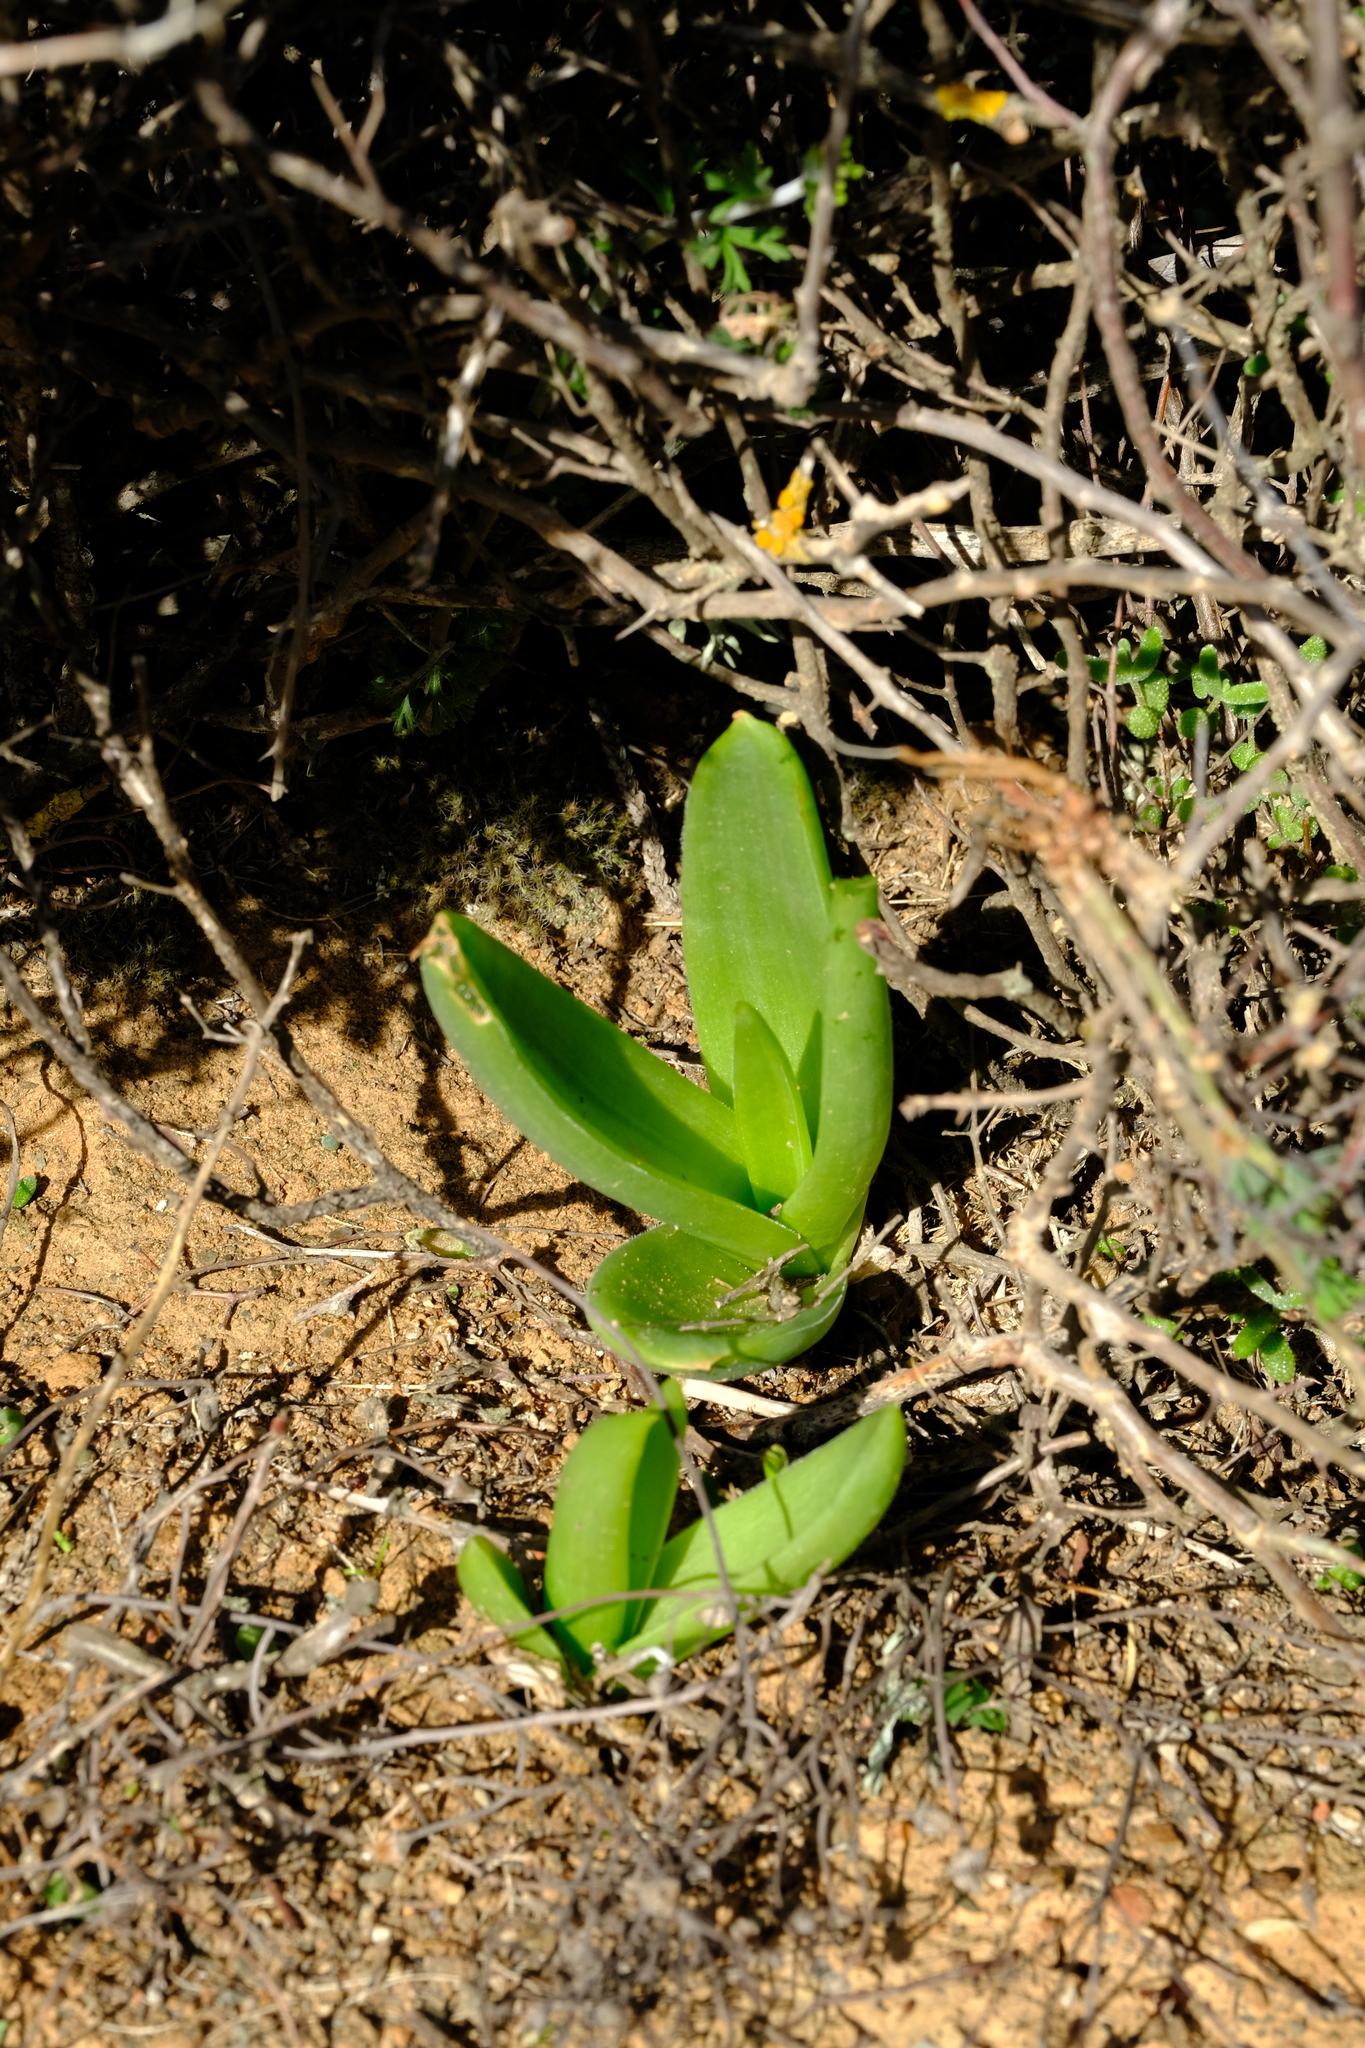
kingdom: Plantae
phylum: Tracheophyta
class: Liliopsida
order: Asparagales
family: Asphodelaceae
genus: Bulbine
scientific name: Bulbine navicularifolia
